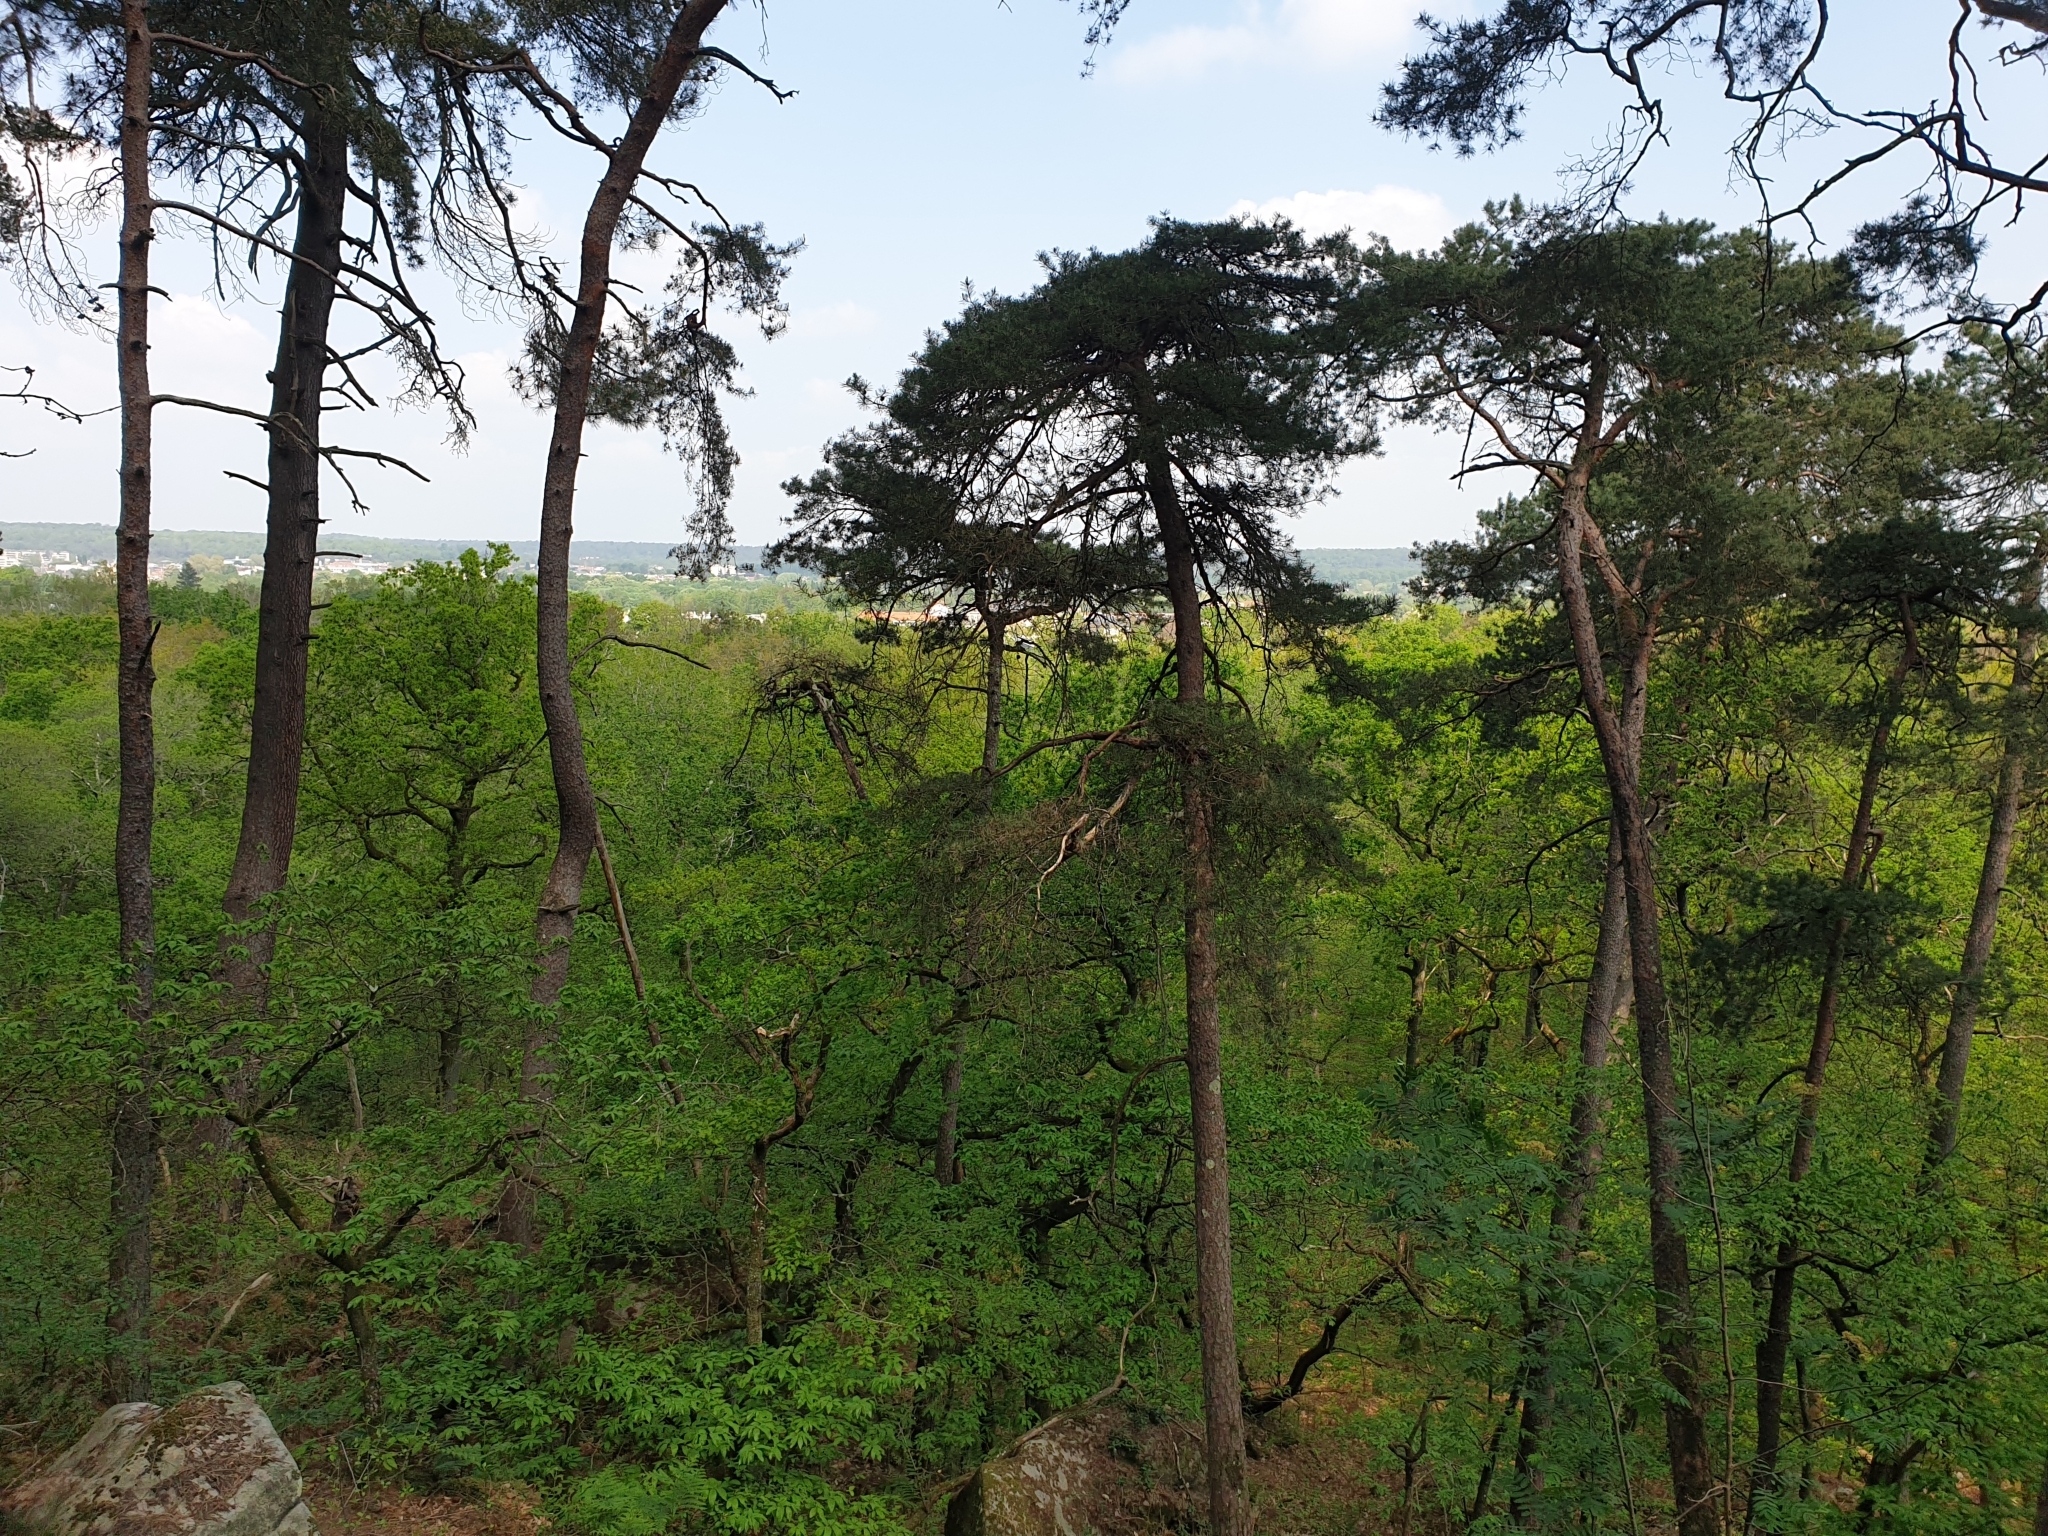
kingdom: Plantae
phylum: Tracheophyta
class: Pinopsida
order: Pinales
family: Pinaceae
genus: Pinus
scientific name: Pinus sylvestris
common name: Scots pine
